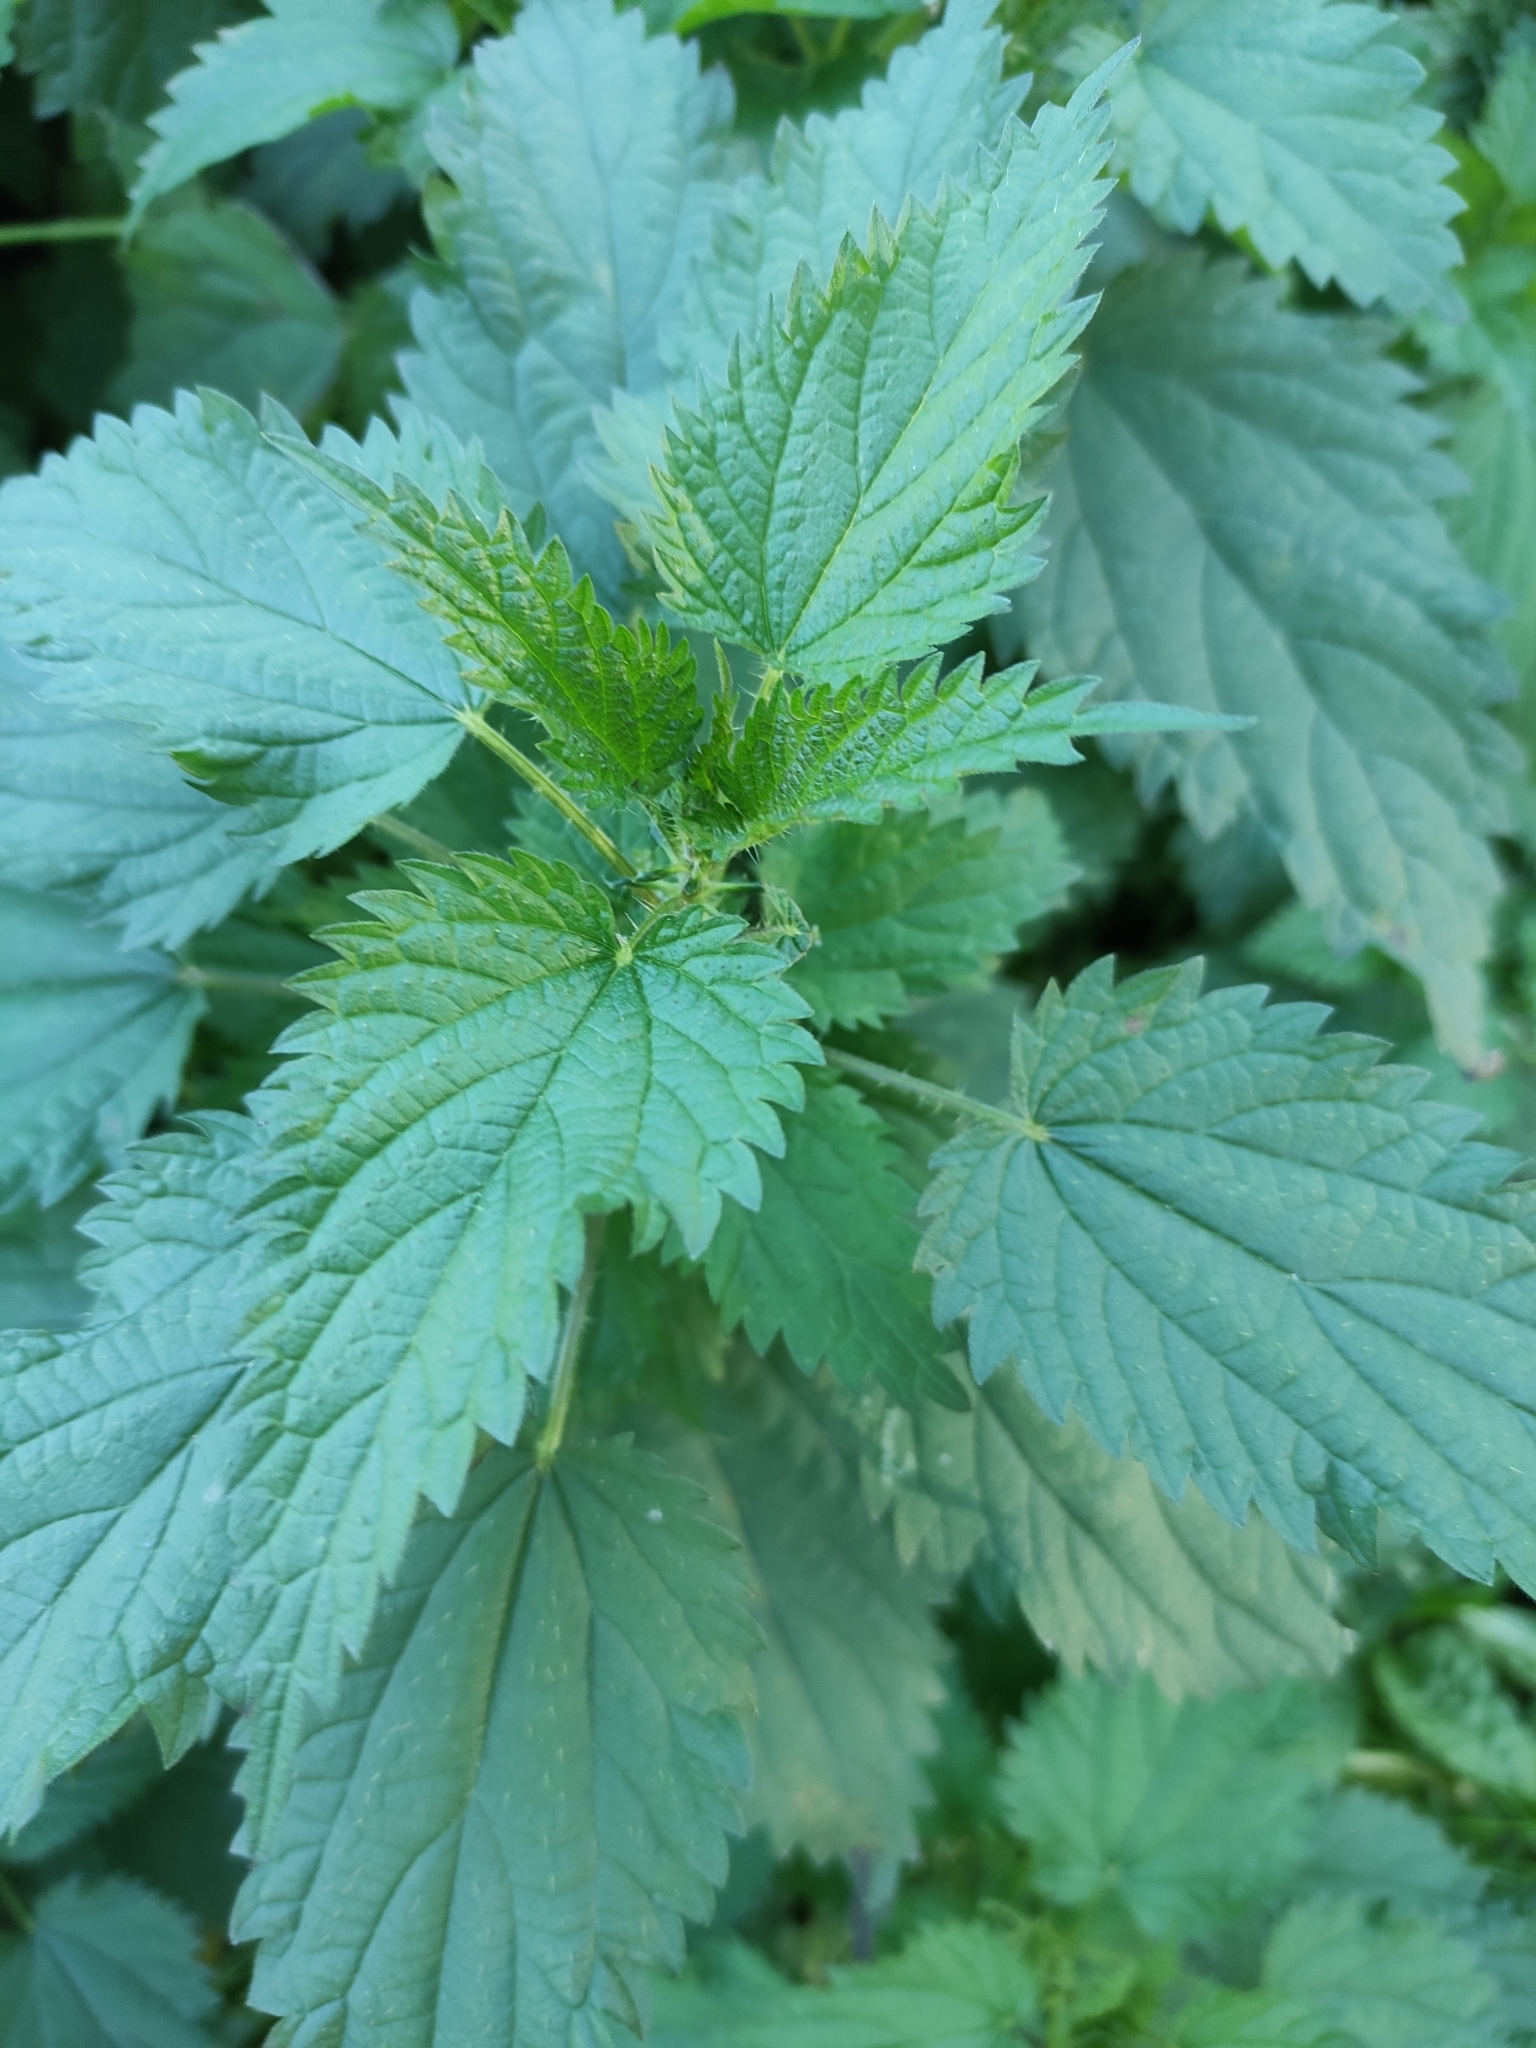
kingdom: Plantae
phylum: Tracheophyta
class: Magnoliopsida
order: Rosales
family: Urticaceae
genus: Urtica
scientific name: Urtica dioica
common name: Common nettle
